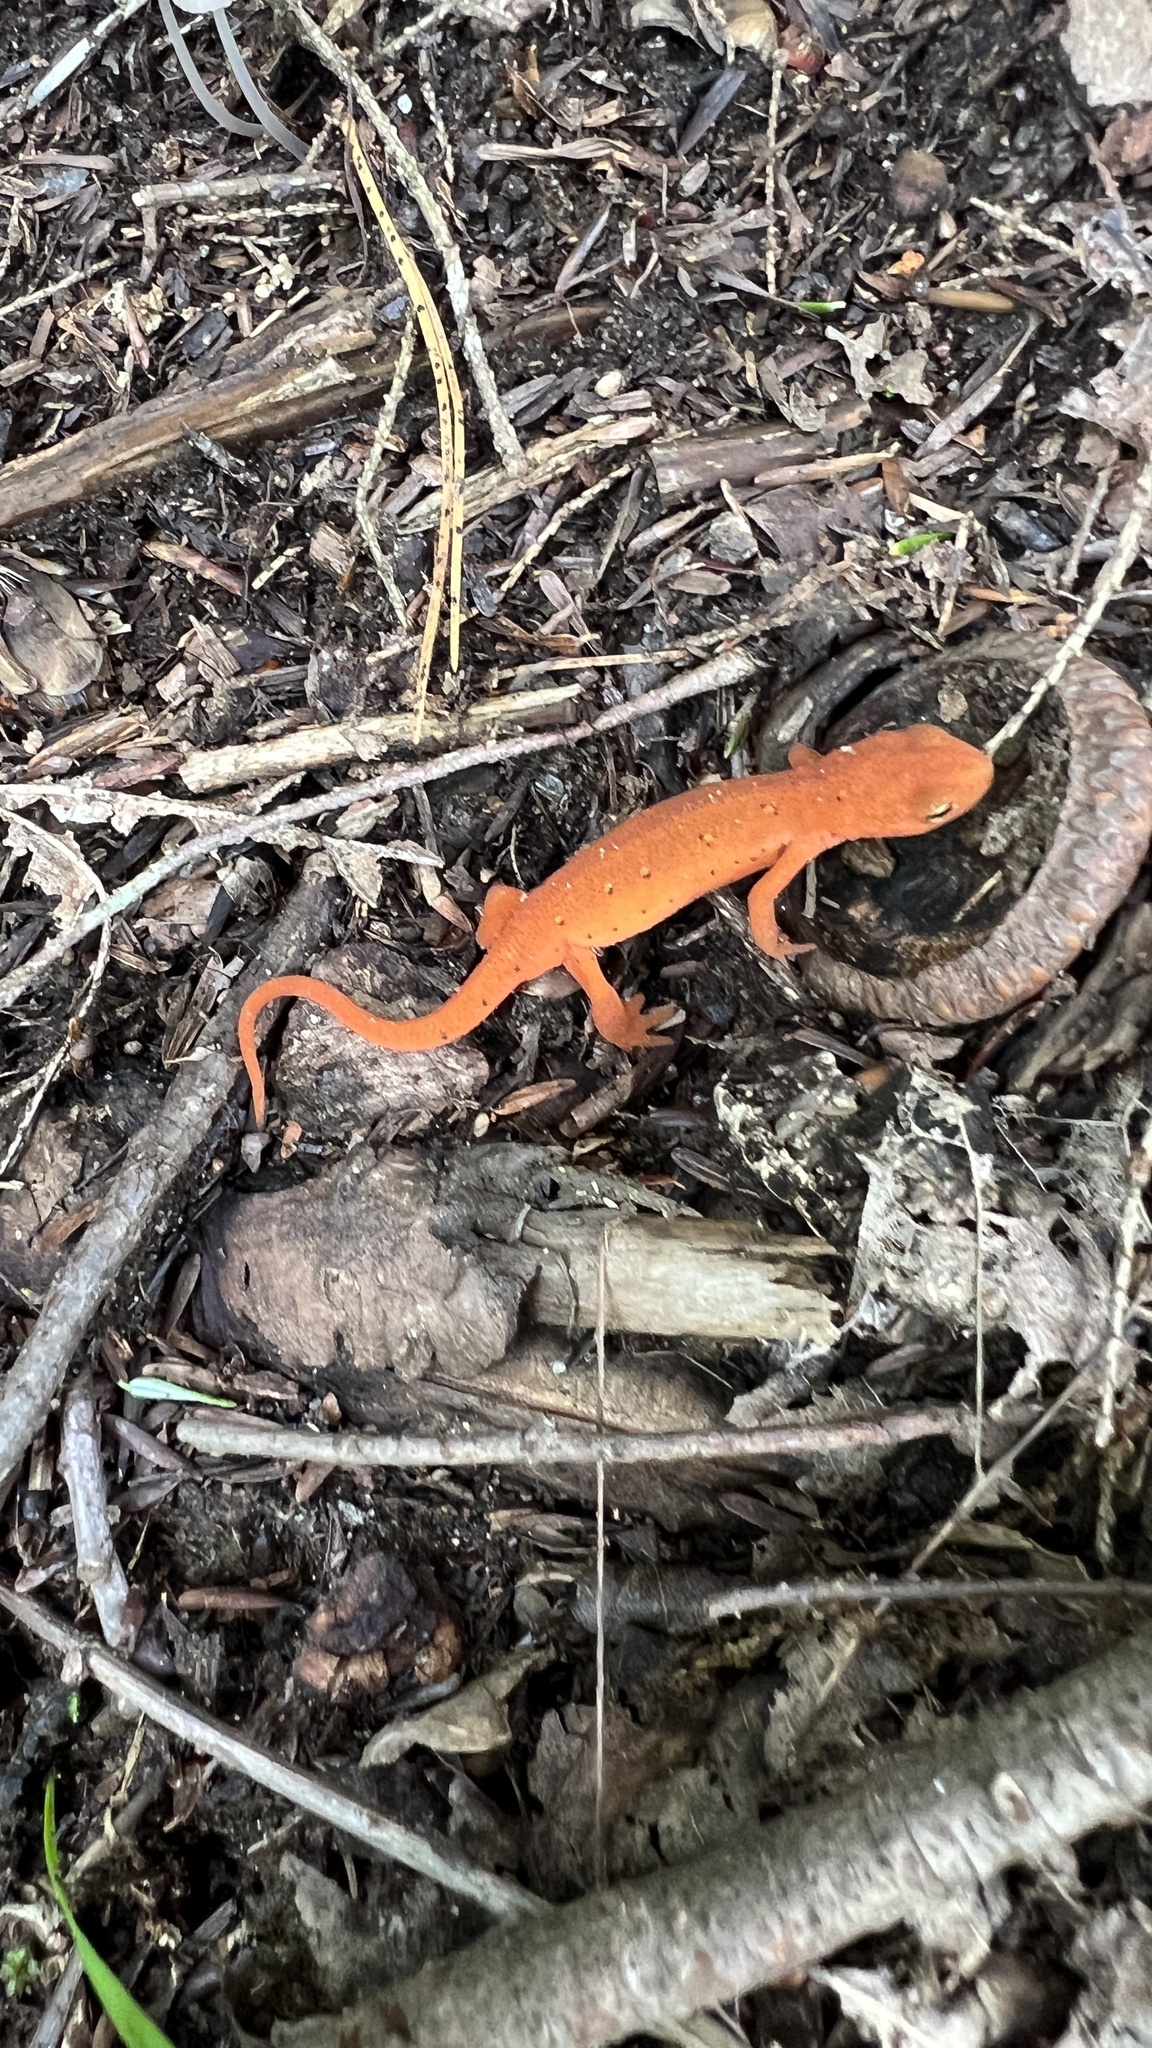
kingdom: Animalia
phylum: Chordata
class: Amphibia
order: Caudata
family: Salamandridae
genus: Notophthalmus
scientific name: Notophthalmus viridescens
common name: Eastern newt
